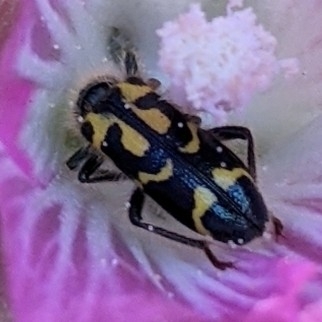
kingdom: Animalia
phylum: Arthropoda
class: Insecta
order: Coleoptera
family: Cleridae
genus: Trichodes
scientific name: Trichodes ornatus
